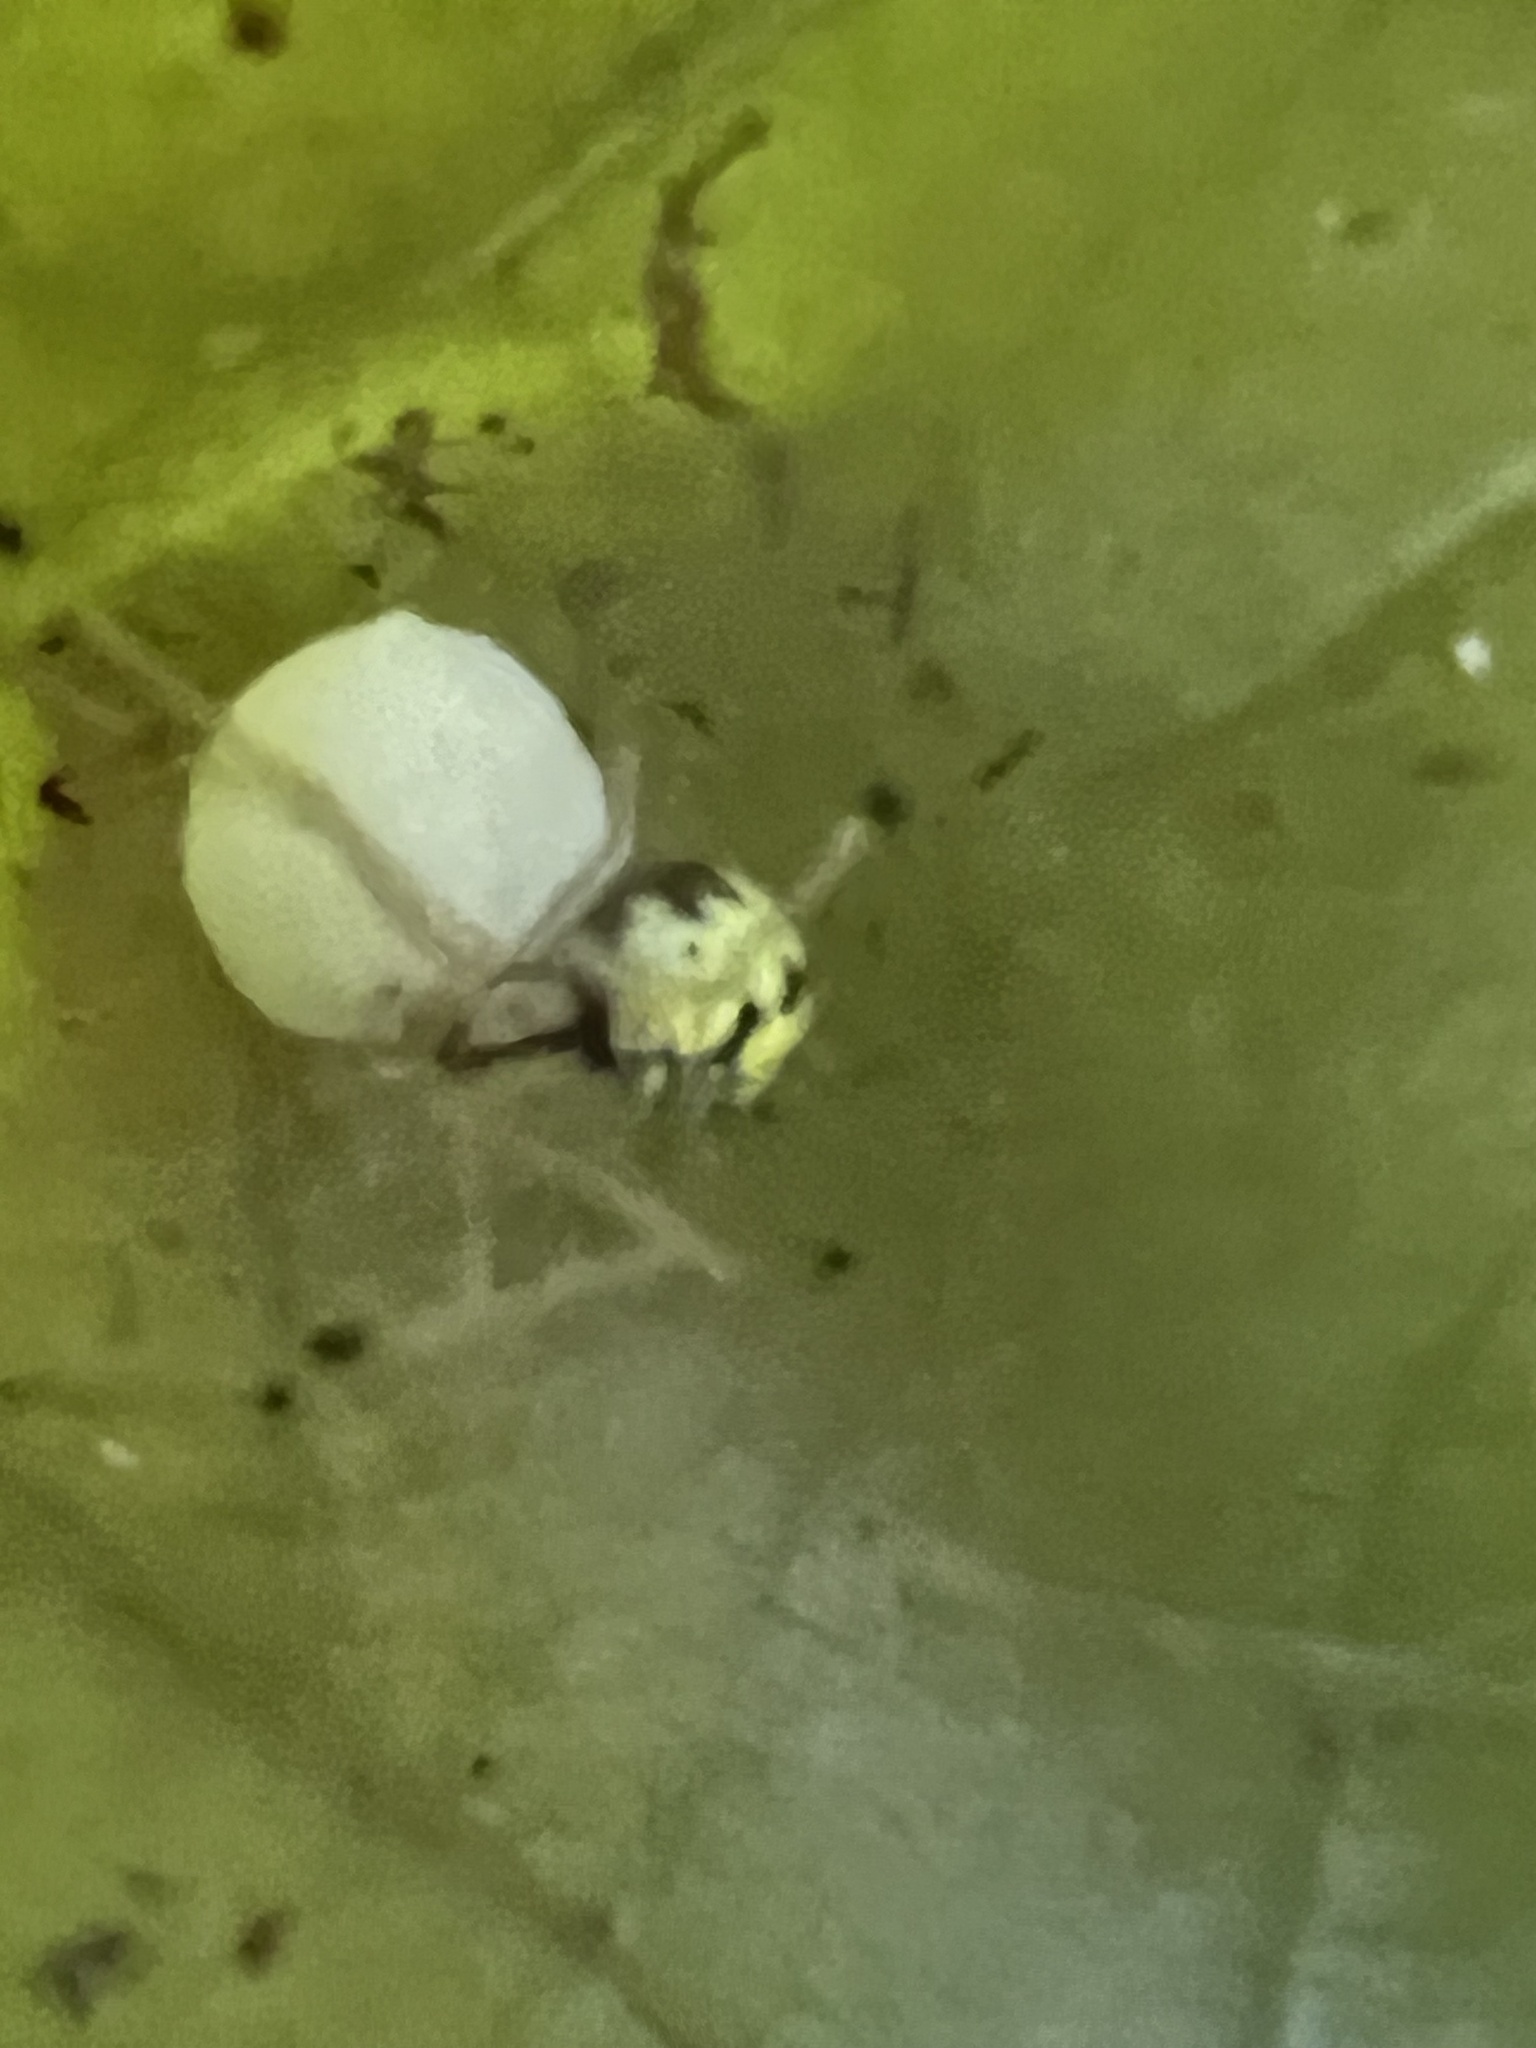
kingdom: Animalia
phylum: Arthropoda
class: Arachnida
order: Araneae
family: Theridiidae
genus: Phylloneta
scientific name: Phylloneta pictipes
